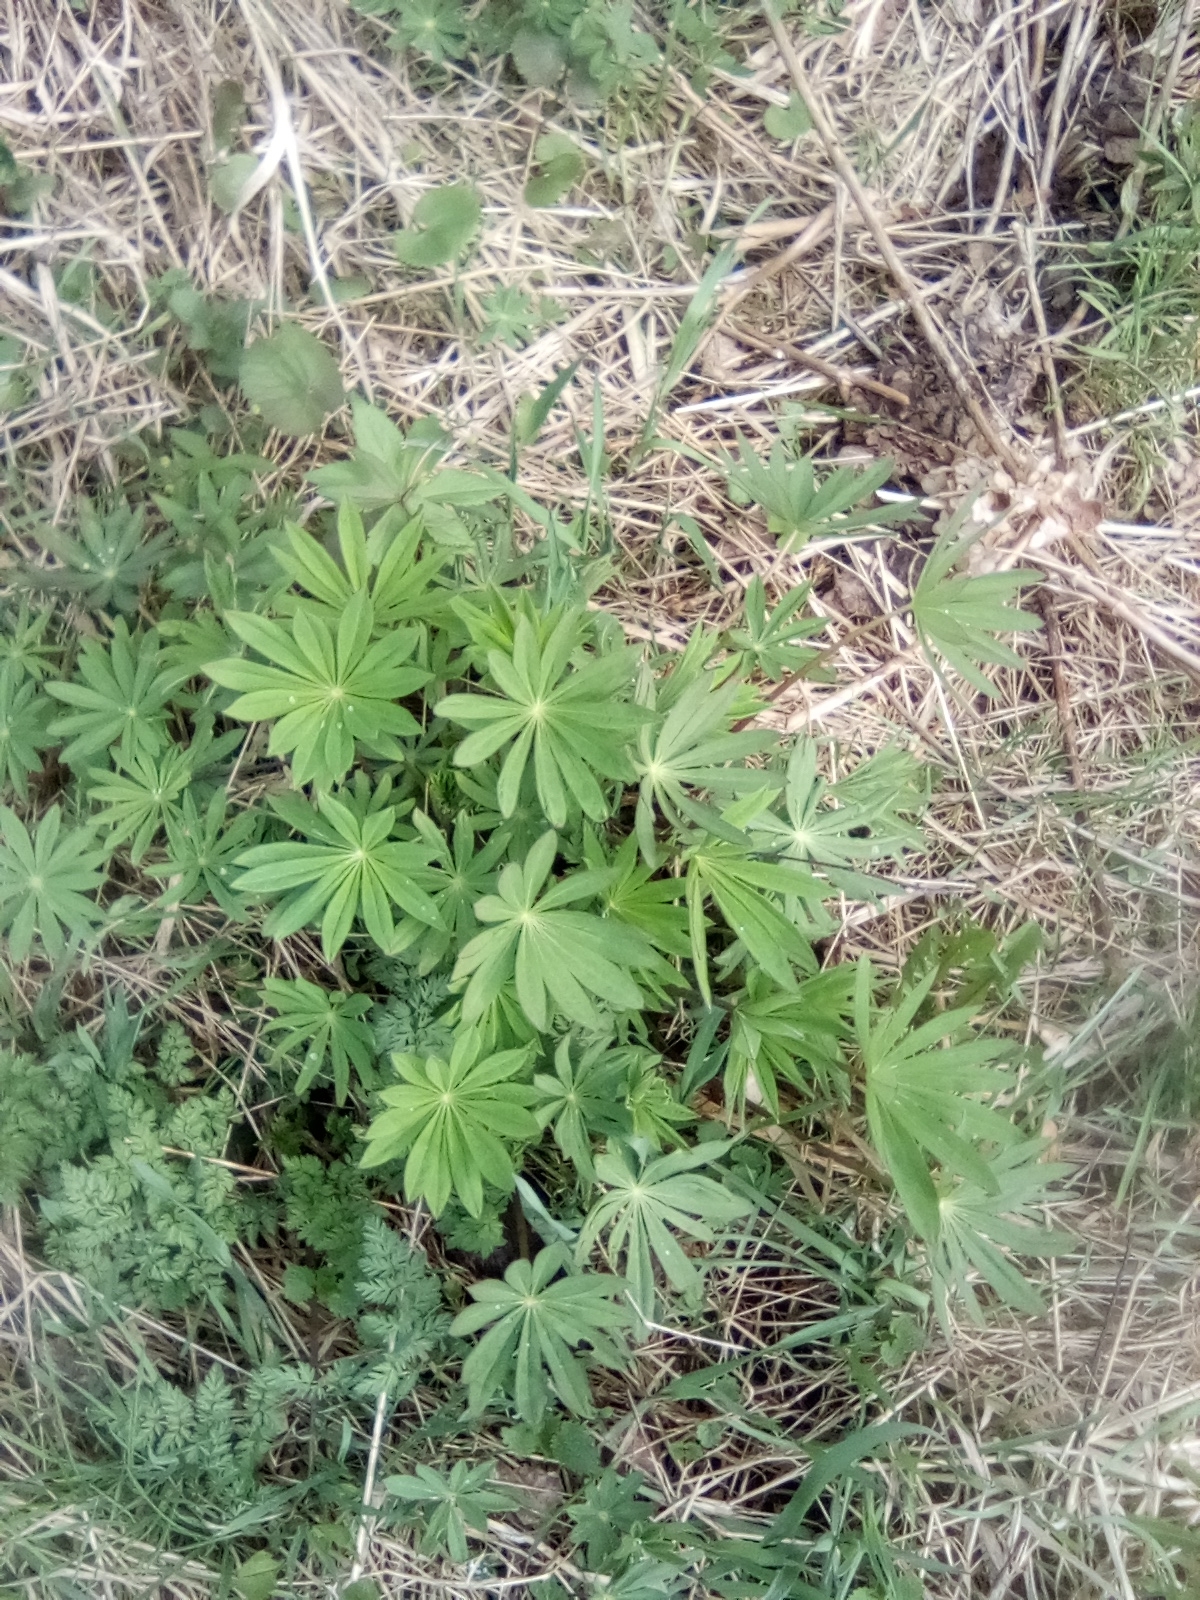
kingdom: Plantae
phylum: Tracheophyta
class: Magnoliopsida
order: Fabales
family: Fabaceae
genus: Lupinus
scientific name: Lupinus polyphyllus
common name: Garden lupin
